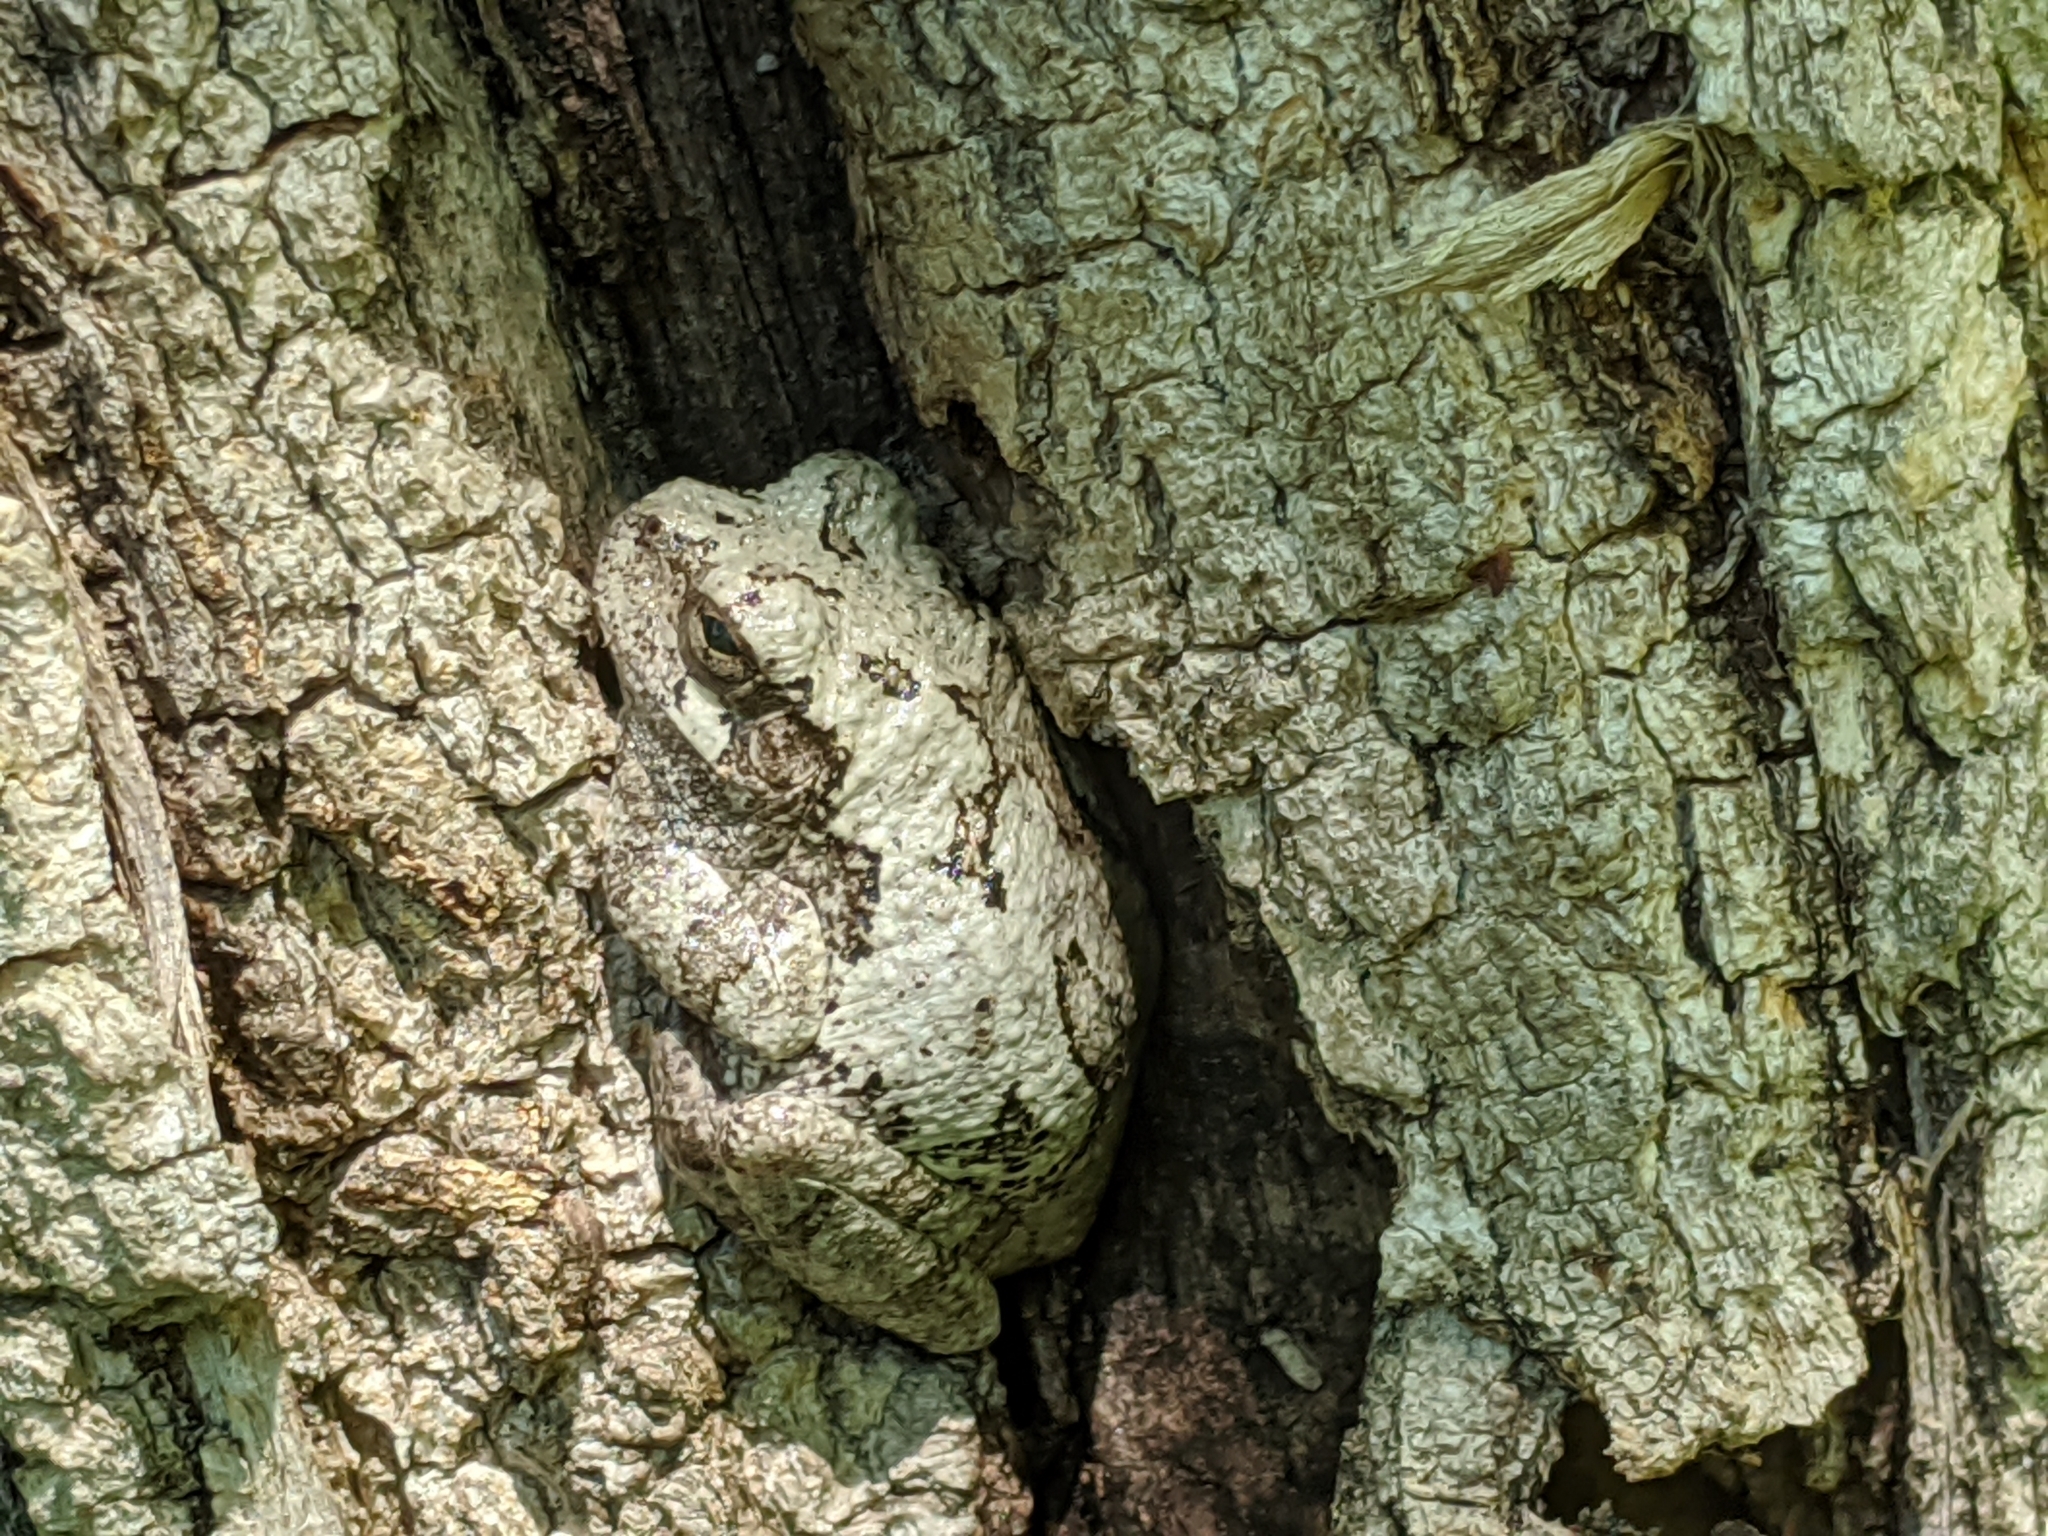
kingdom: Animalia
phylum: Chordata
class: Amphibia
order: Anura
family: Hylidae
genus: Hyla
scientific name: Hyla
